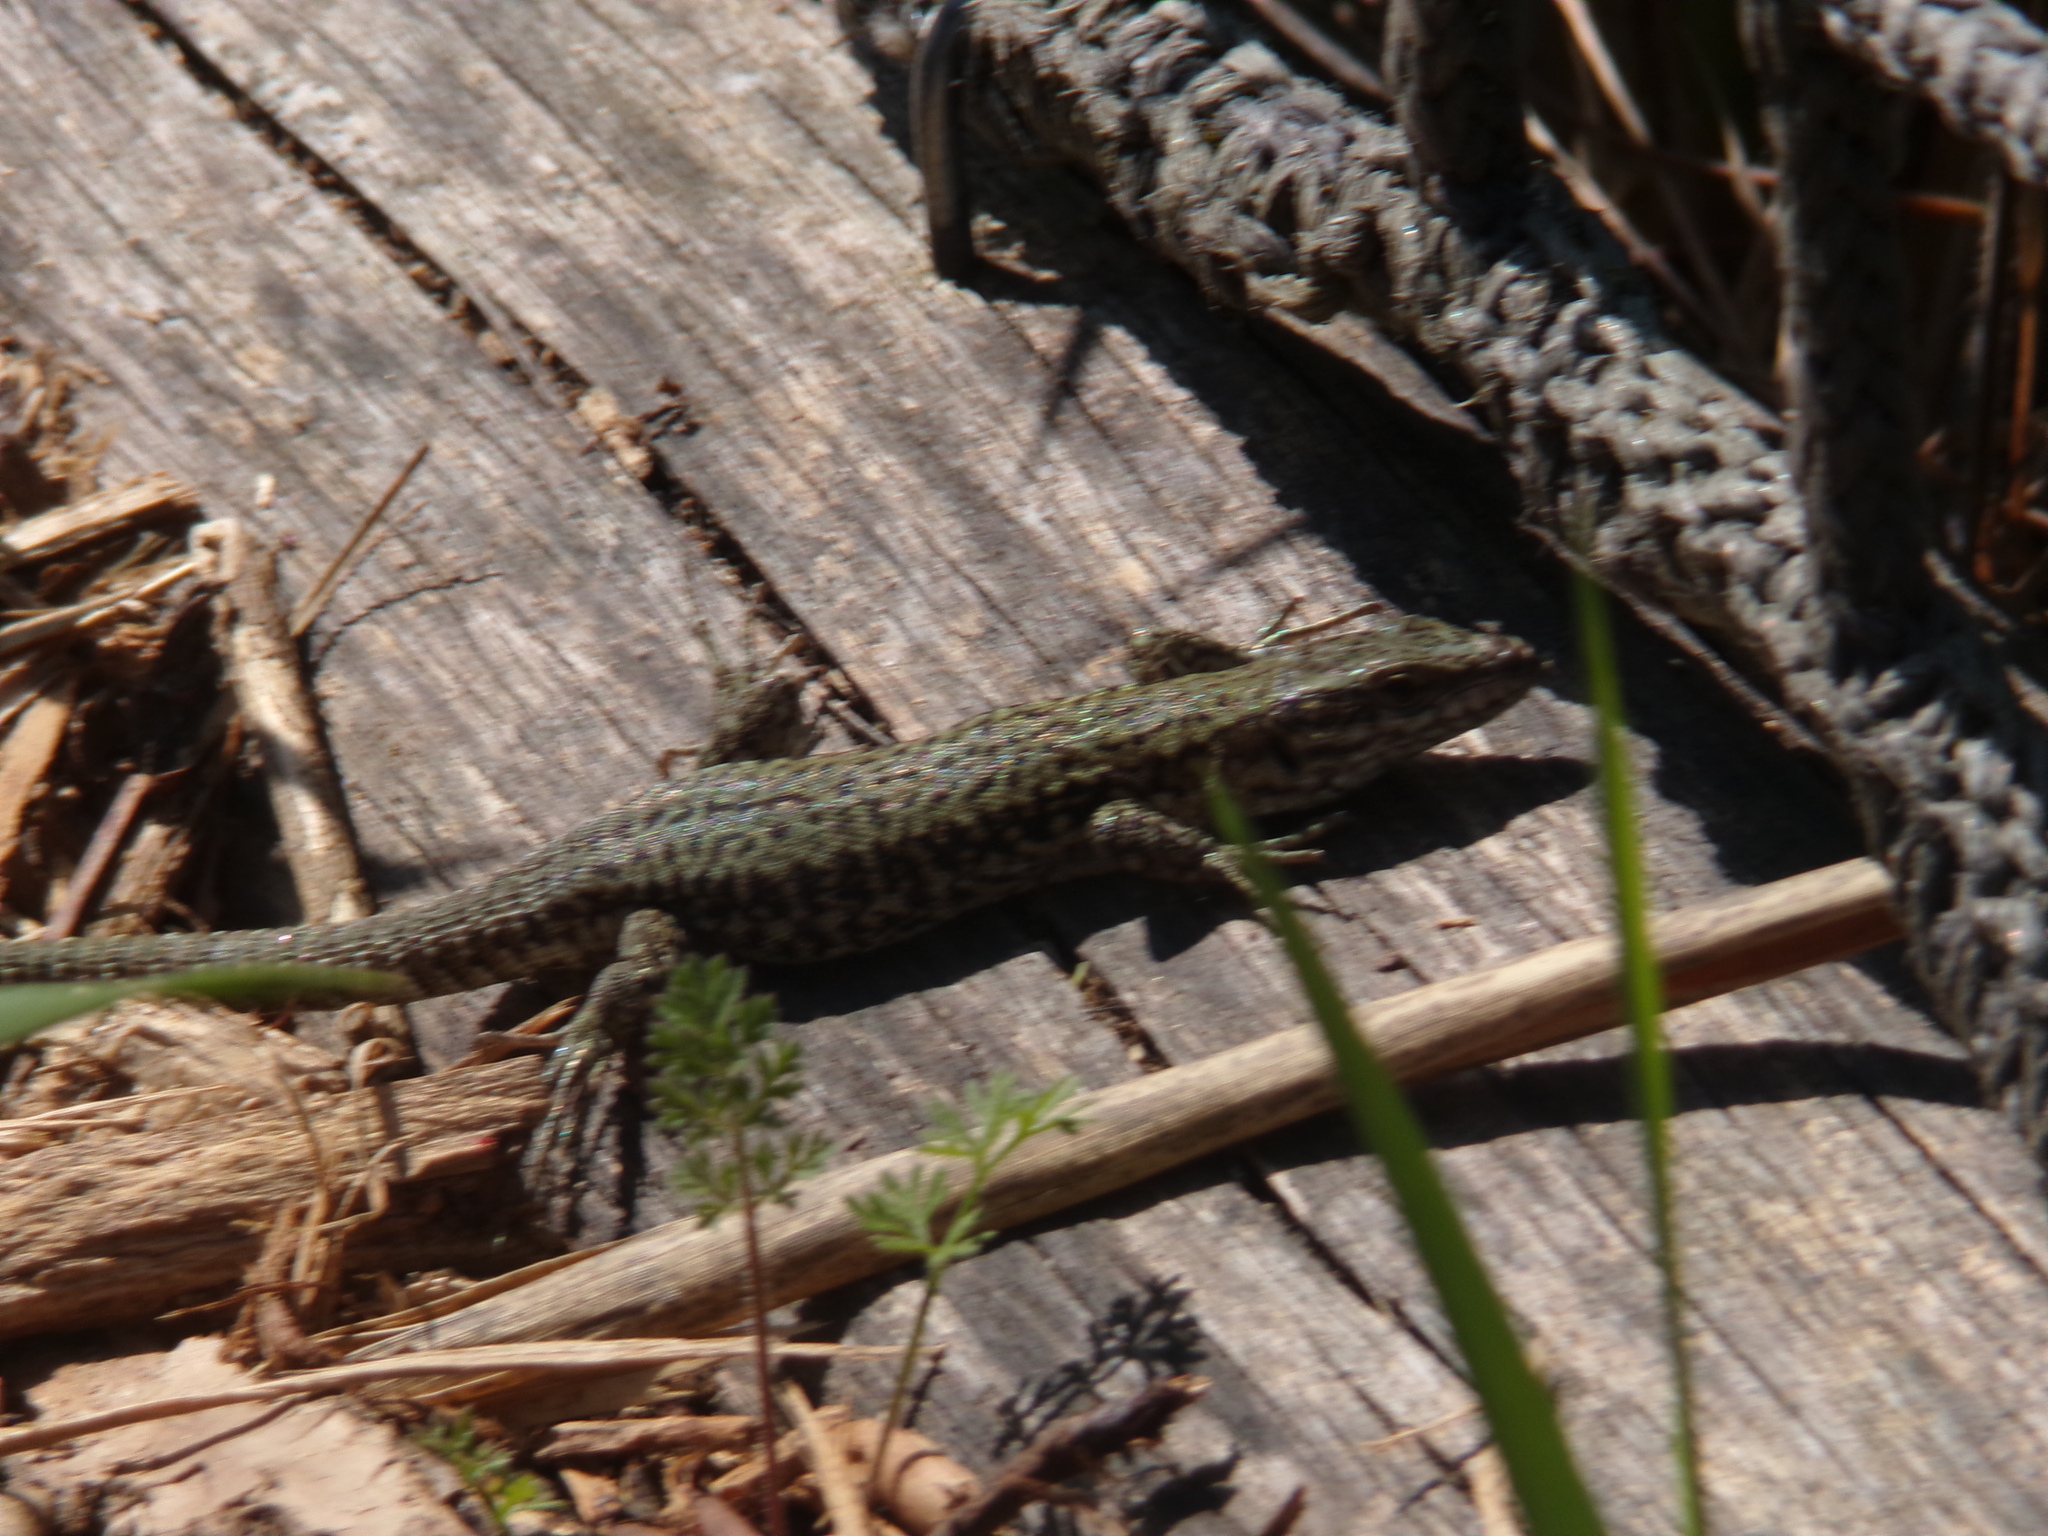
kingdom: Animalia
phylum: Chordata
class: Squamata
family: Lacertidae
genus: Podarcis
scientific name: Podarcis muralis
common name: Common wall lizard
